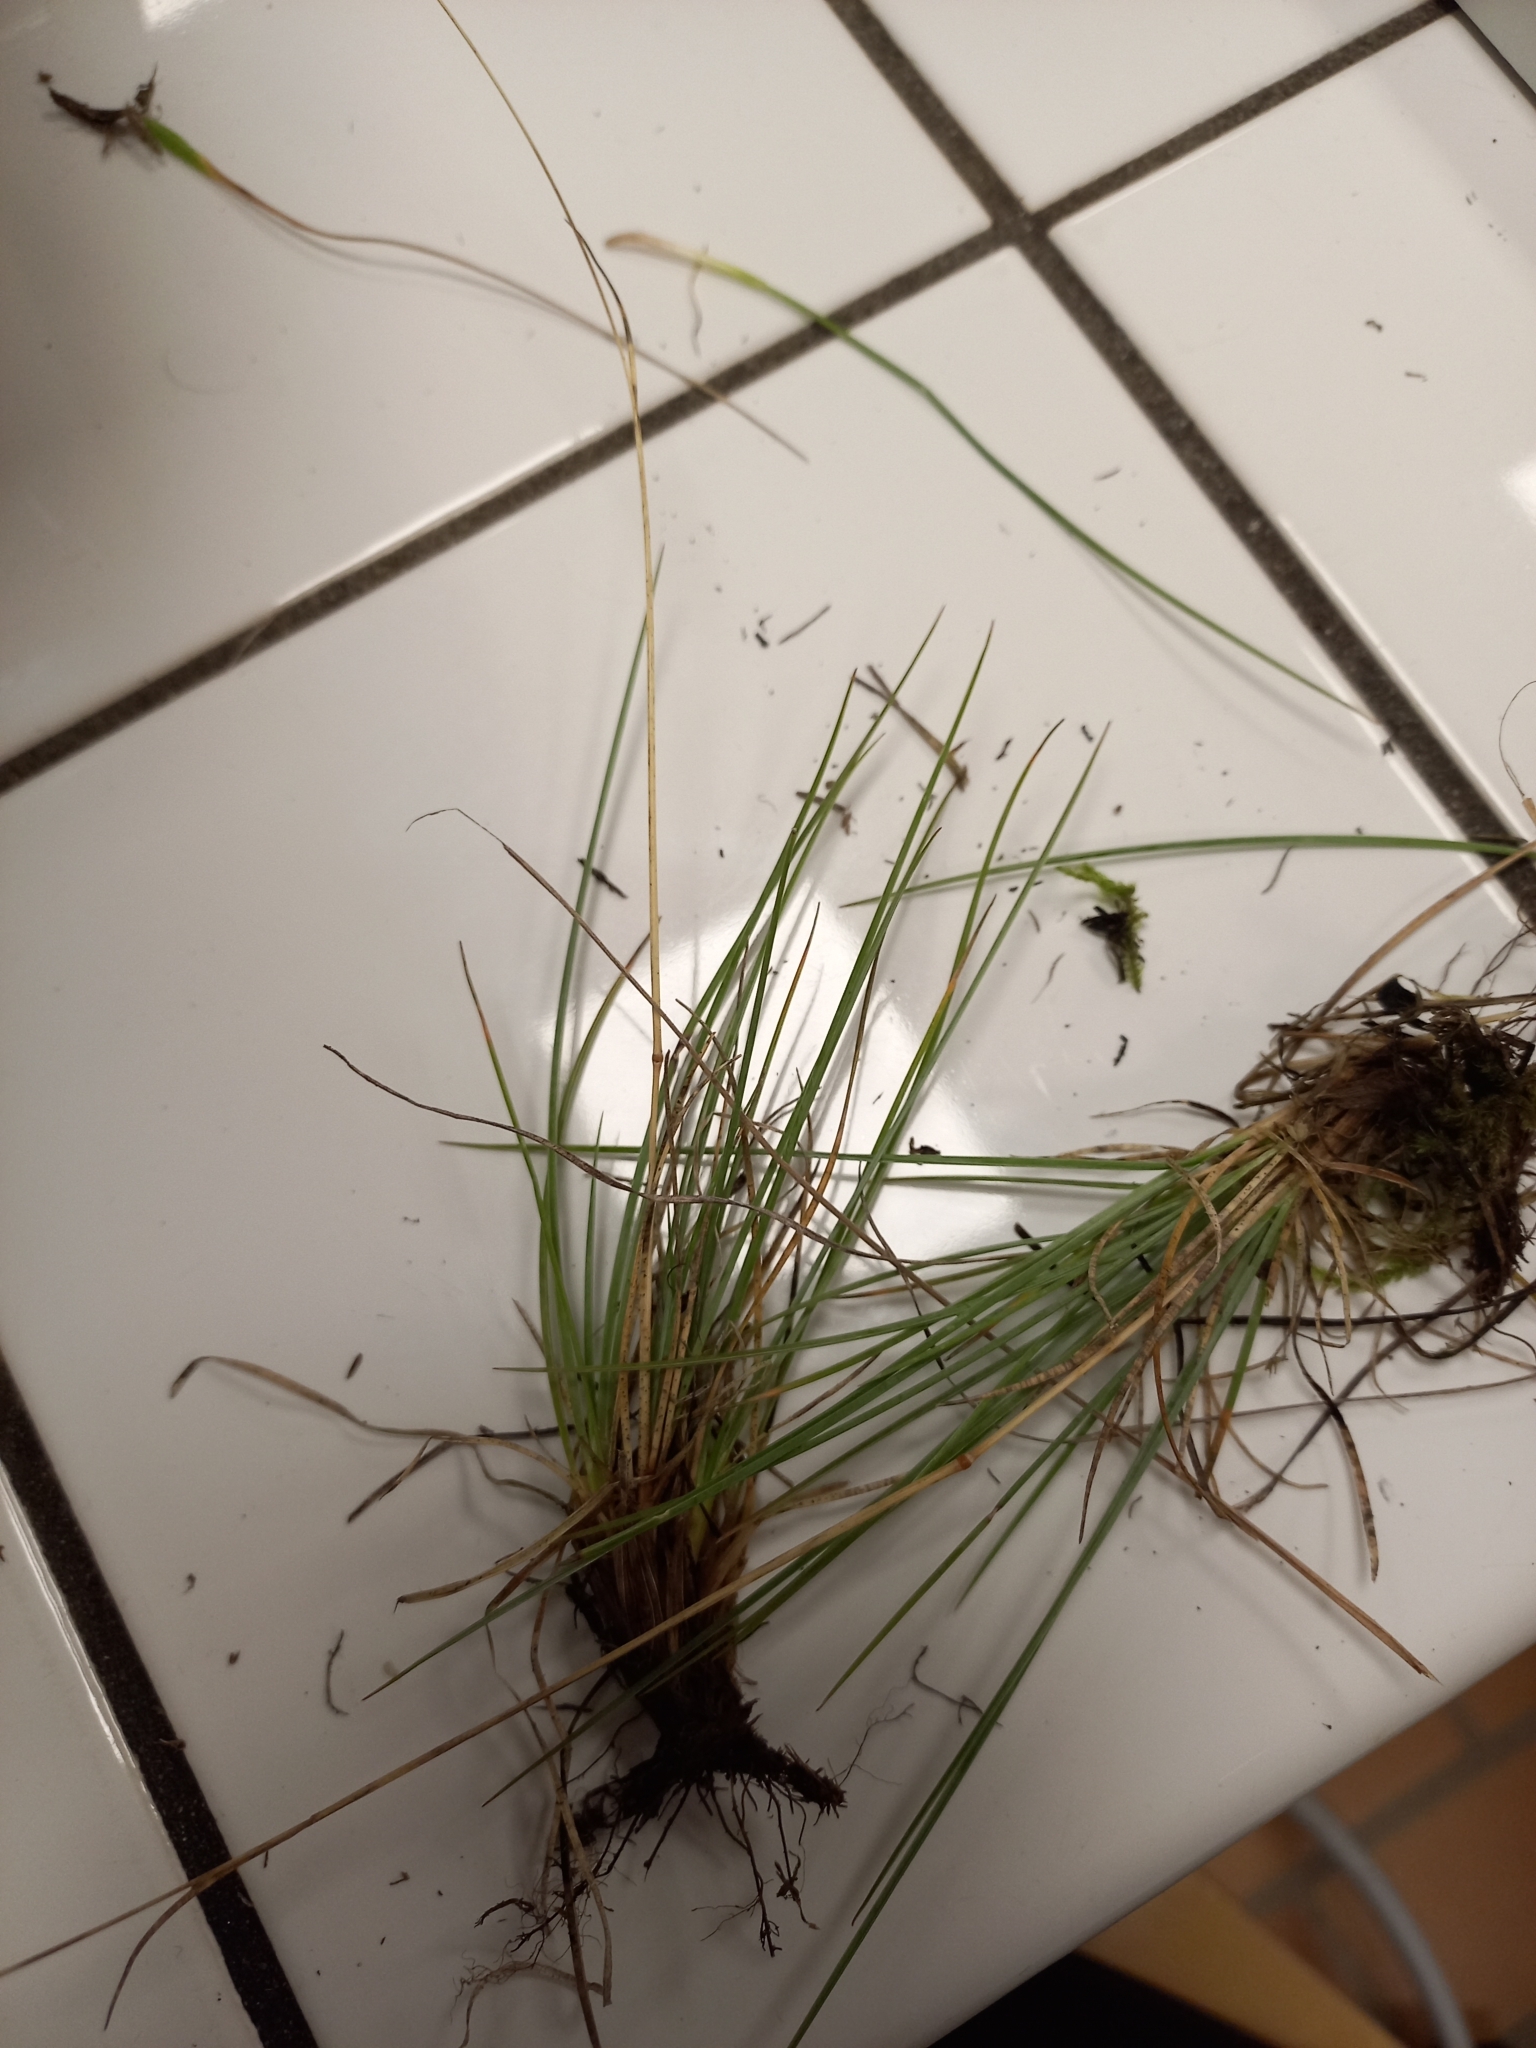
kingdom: Plantae
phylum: Tracheophyta
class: Liliopsida
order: Poales
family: Poaceae
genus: Festuca
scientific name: Festuca marginata
